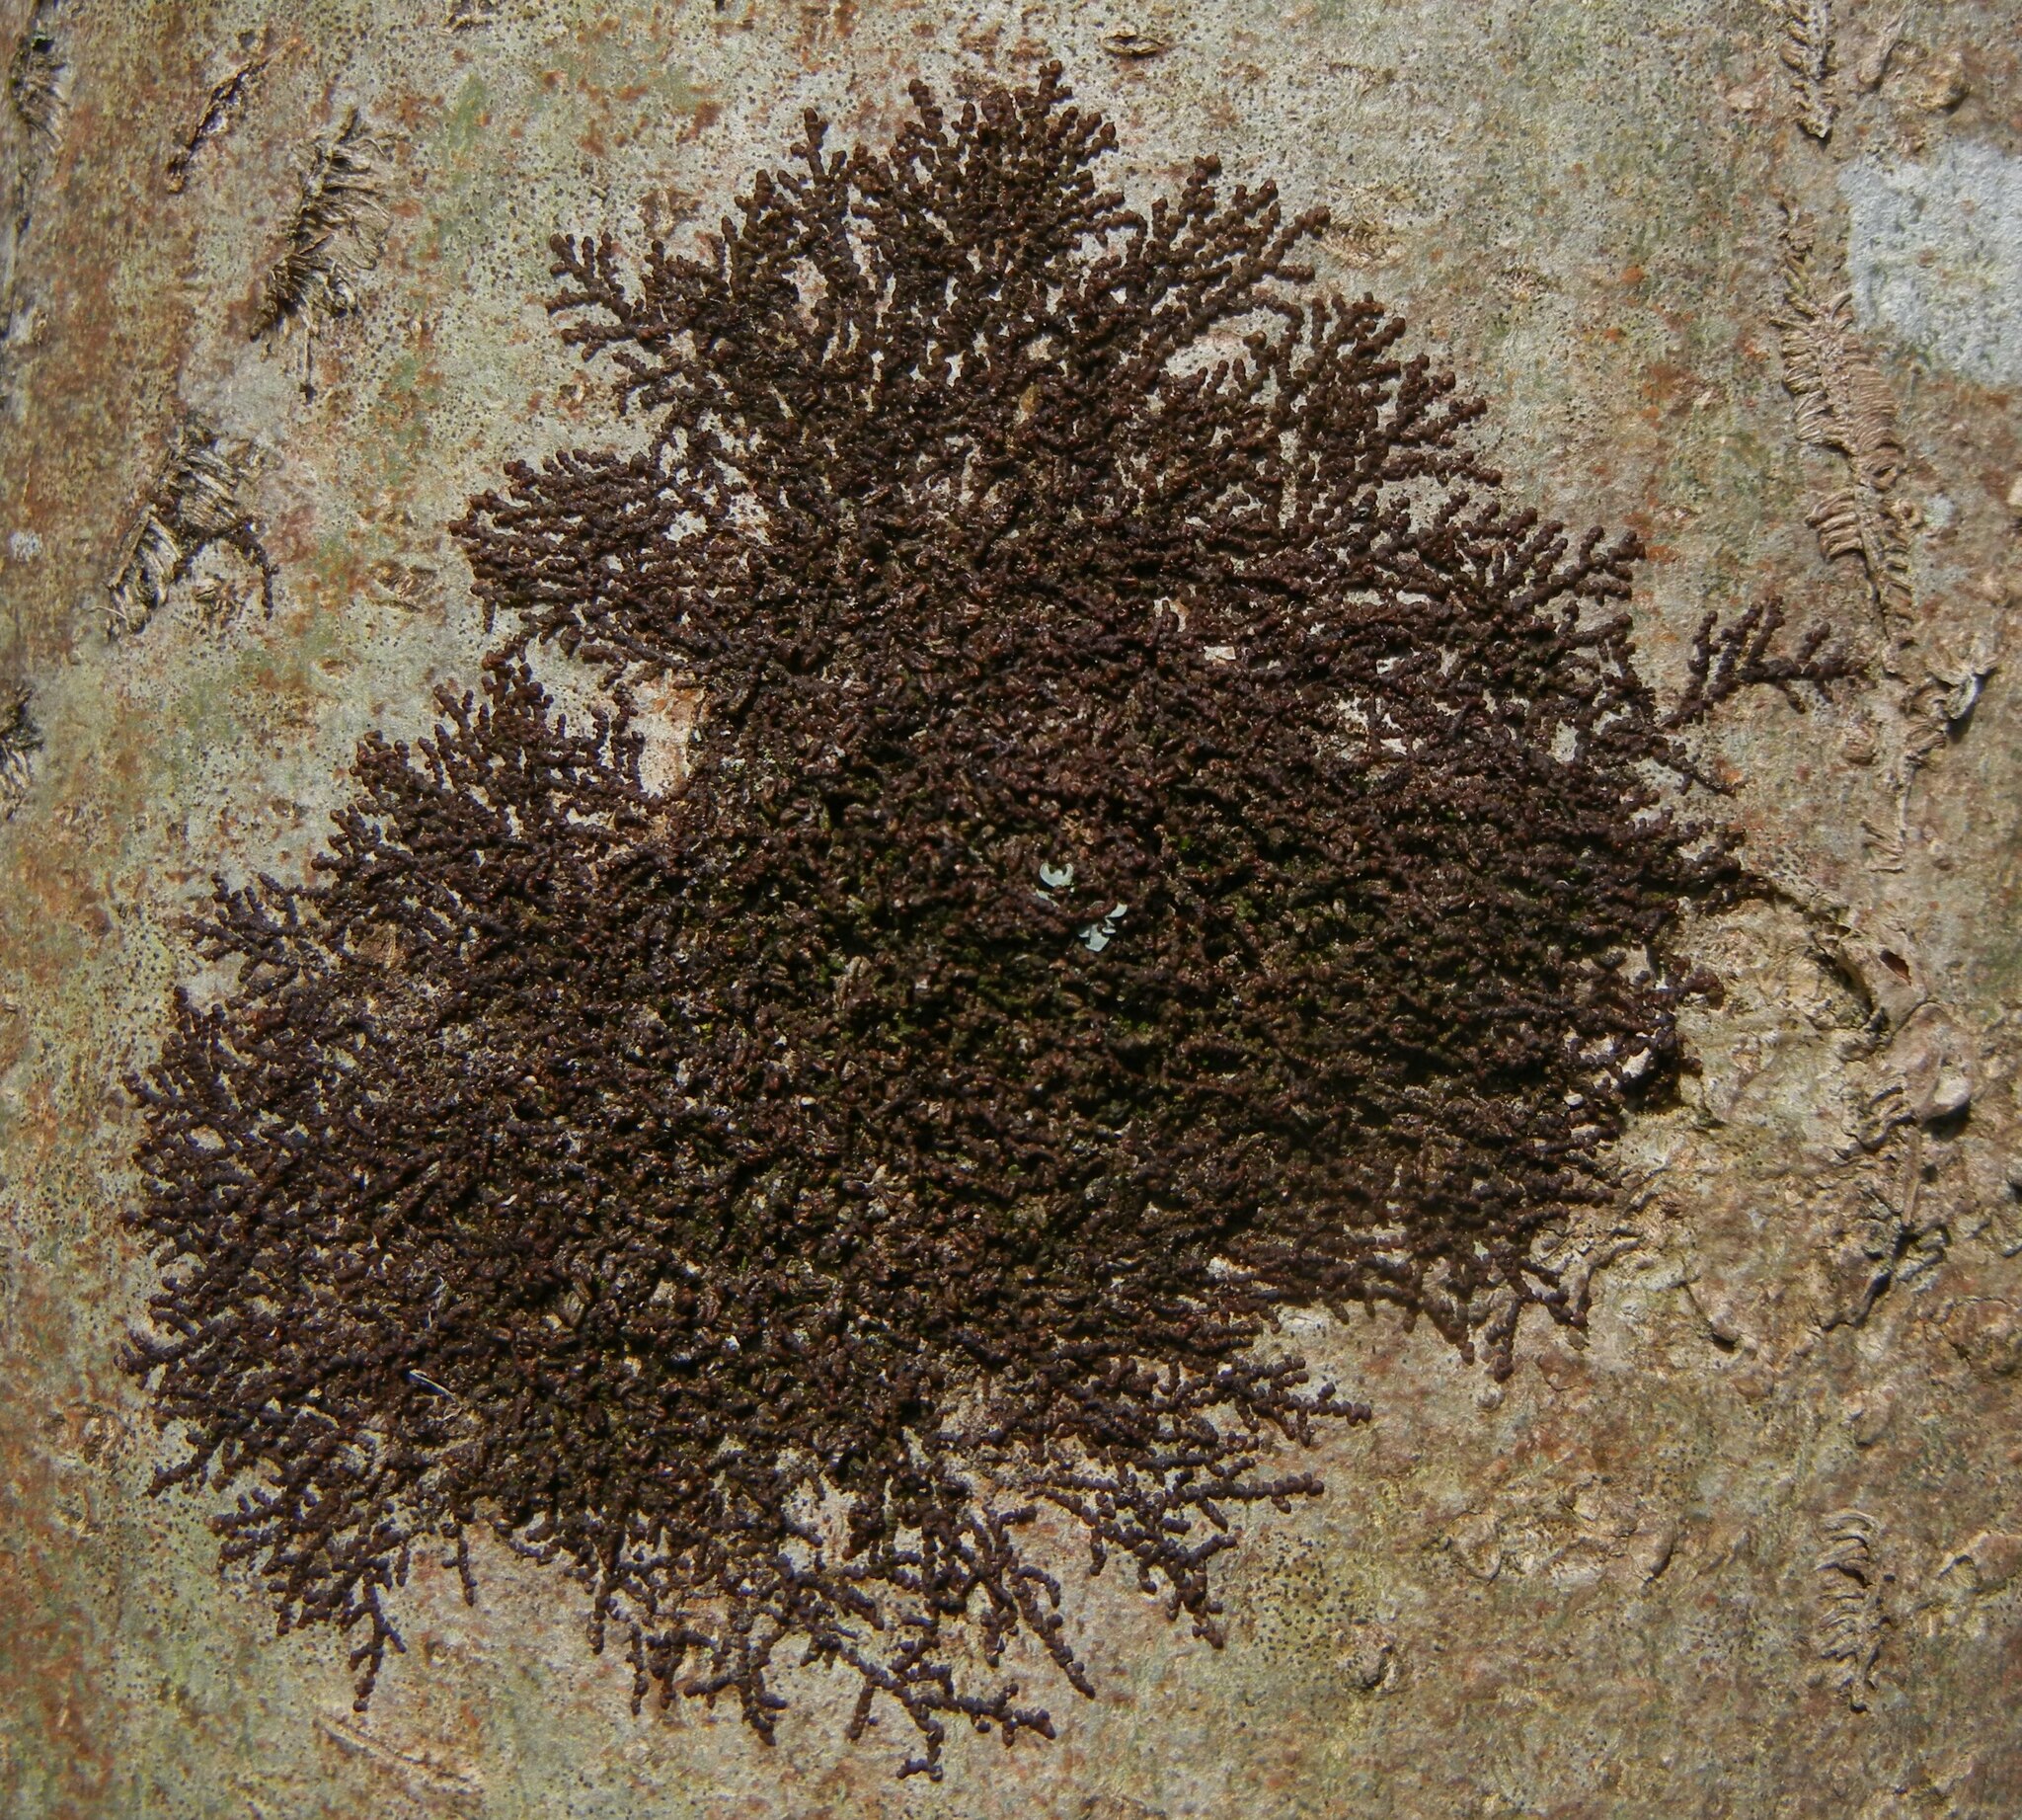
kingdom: Plantae
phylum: Marchantiophyta
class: Jungermanniopsida
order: Porellales
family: Frullaniaceae
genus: Frullania
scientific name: Frullania dilatata
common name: Dilated scalewort
